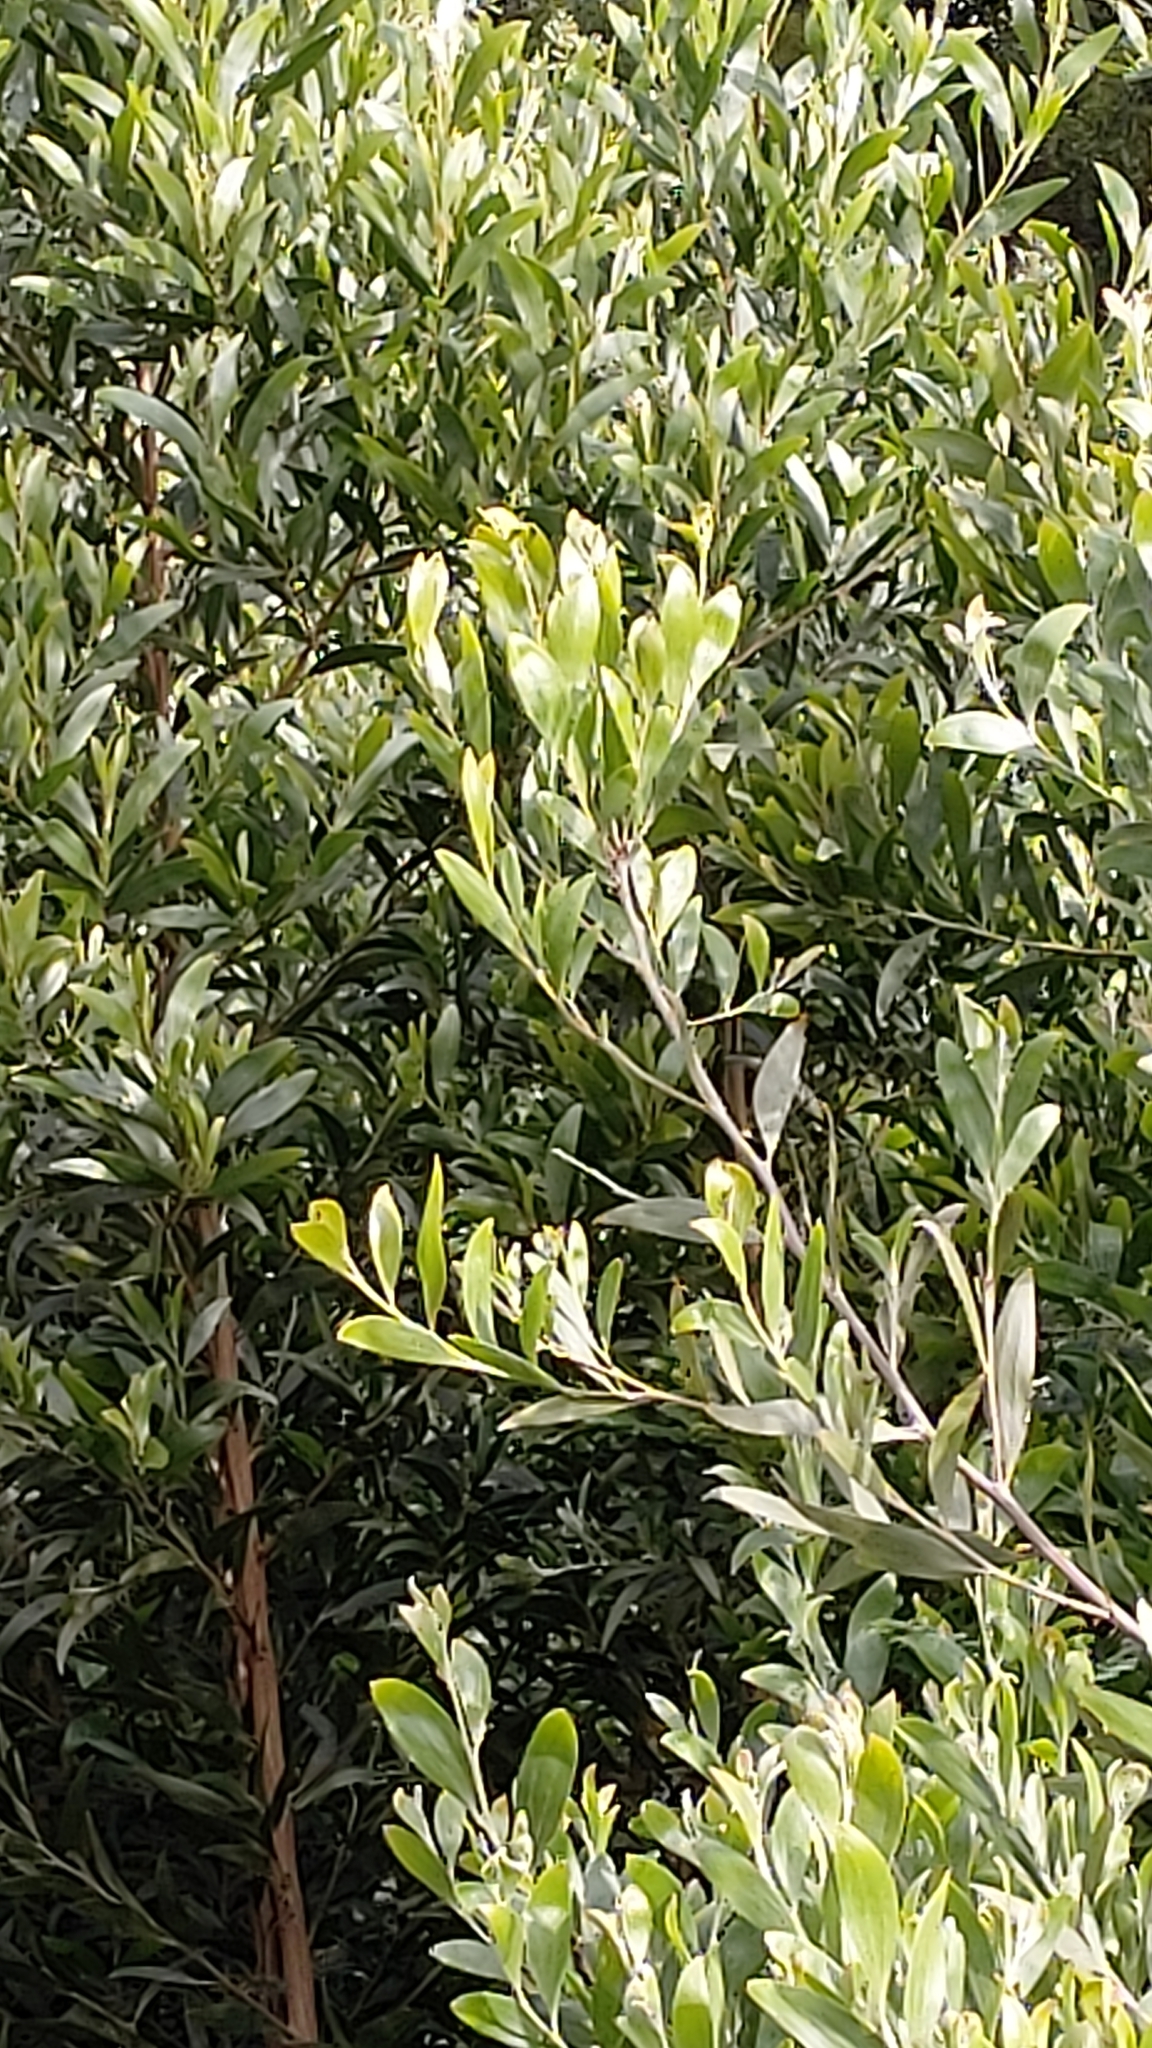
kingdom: Plantae
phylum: Tracheophyta
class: Magnoliopsida
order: Fabales
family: Fabaceae
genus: Acacia
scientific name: Acacia melanoxylon
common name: Blackwood
